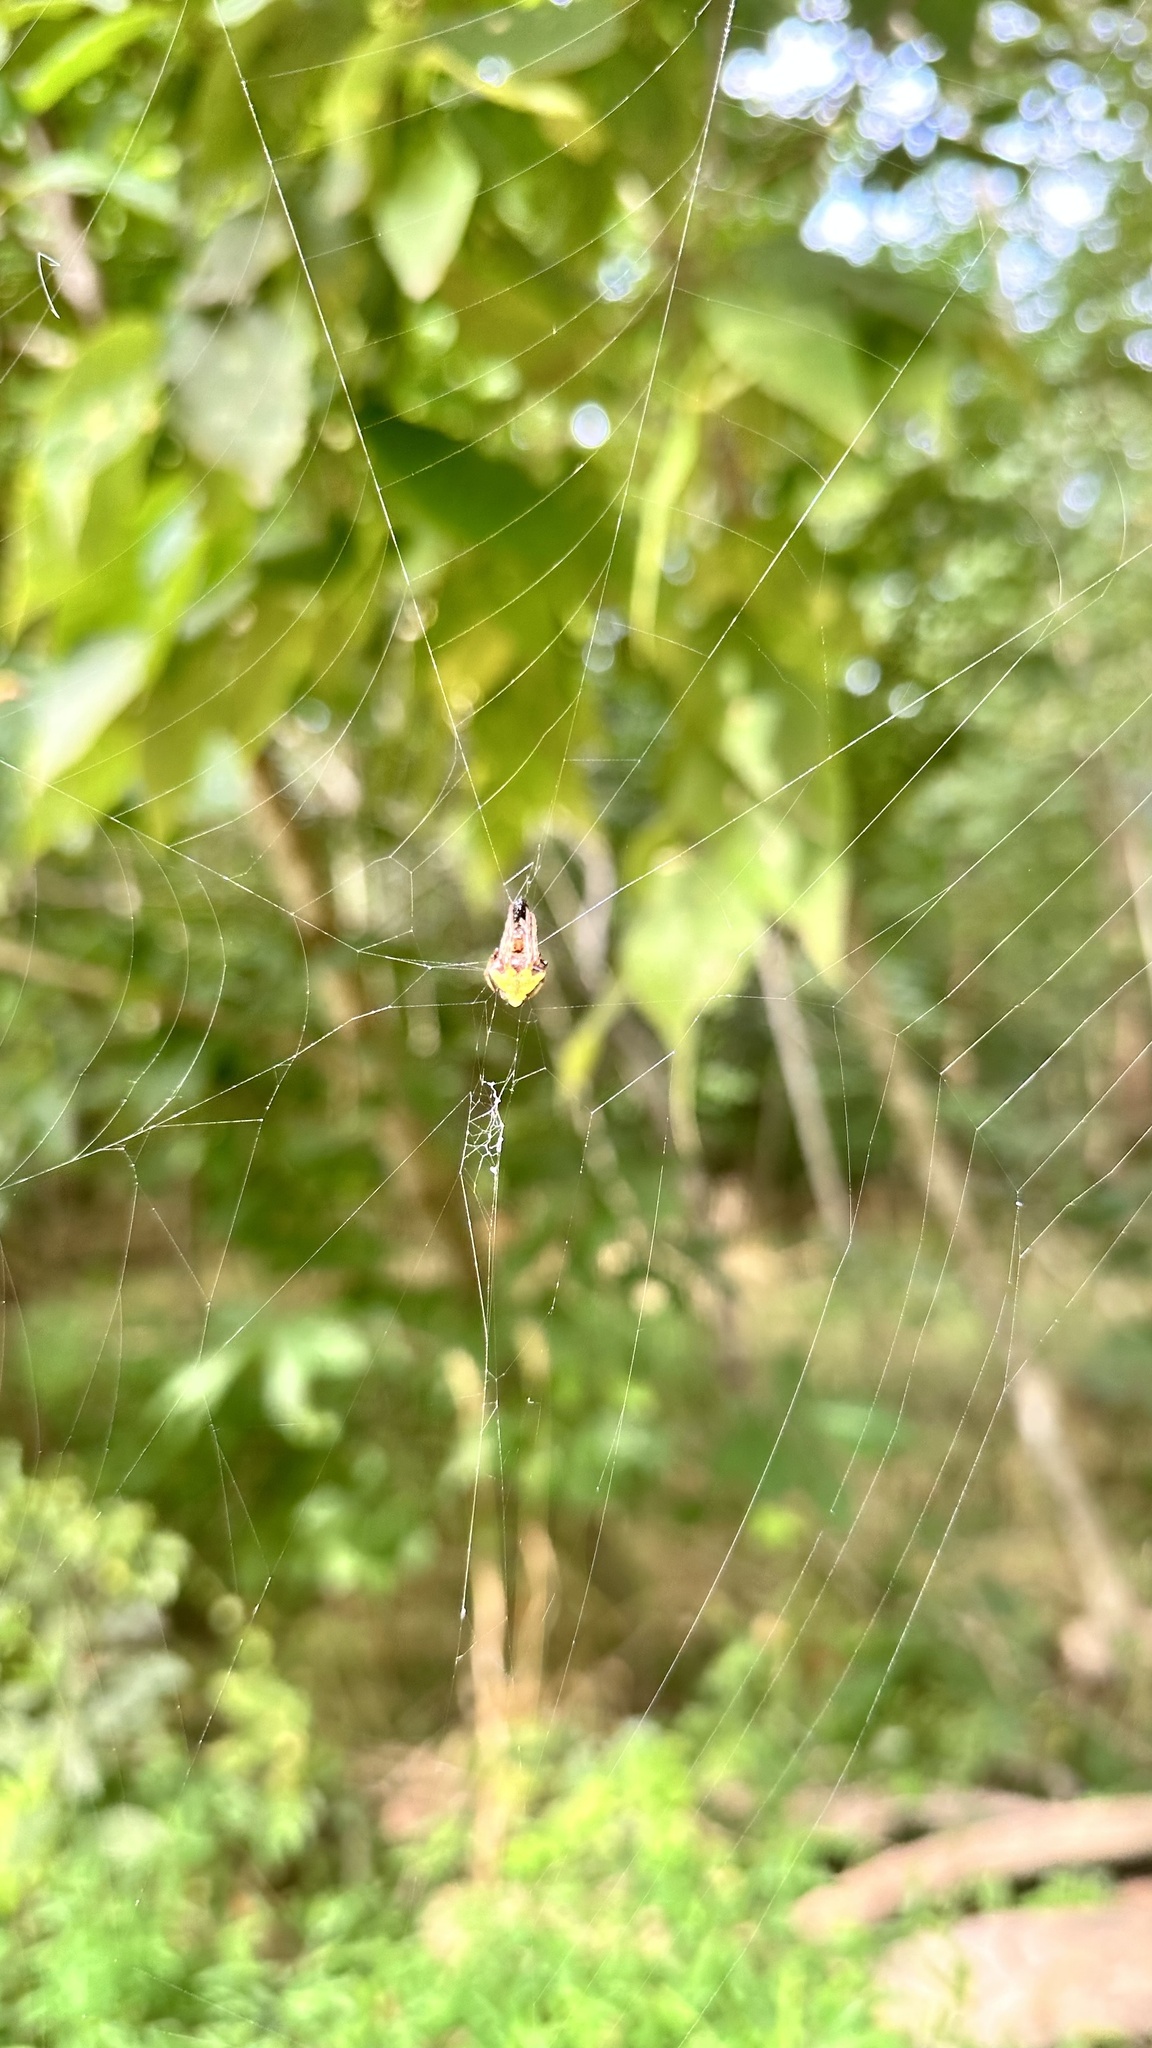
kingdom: Animalia
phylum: Arthropoda
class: Arachnida
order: Araneae
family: Araneidae
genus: Verrucosa
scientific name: Verrucosa arenata
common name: Orb weavers
